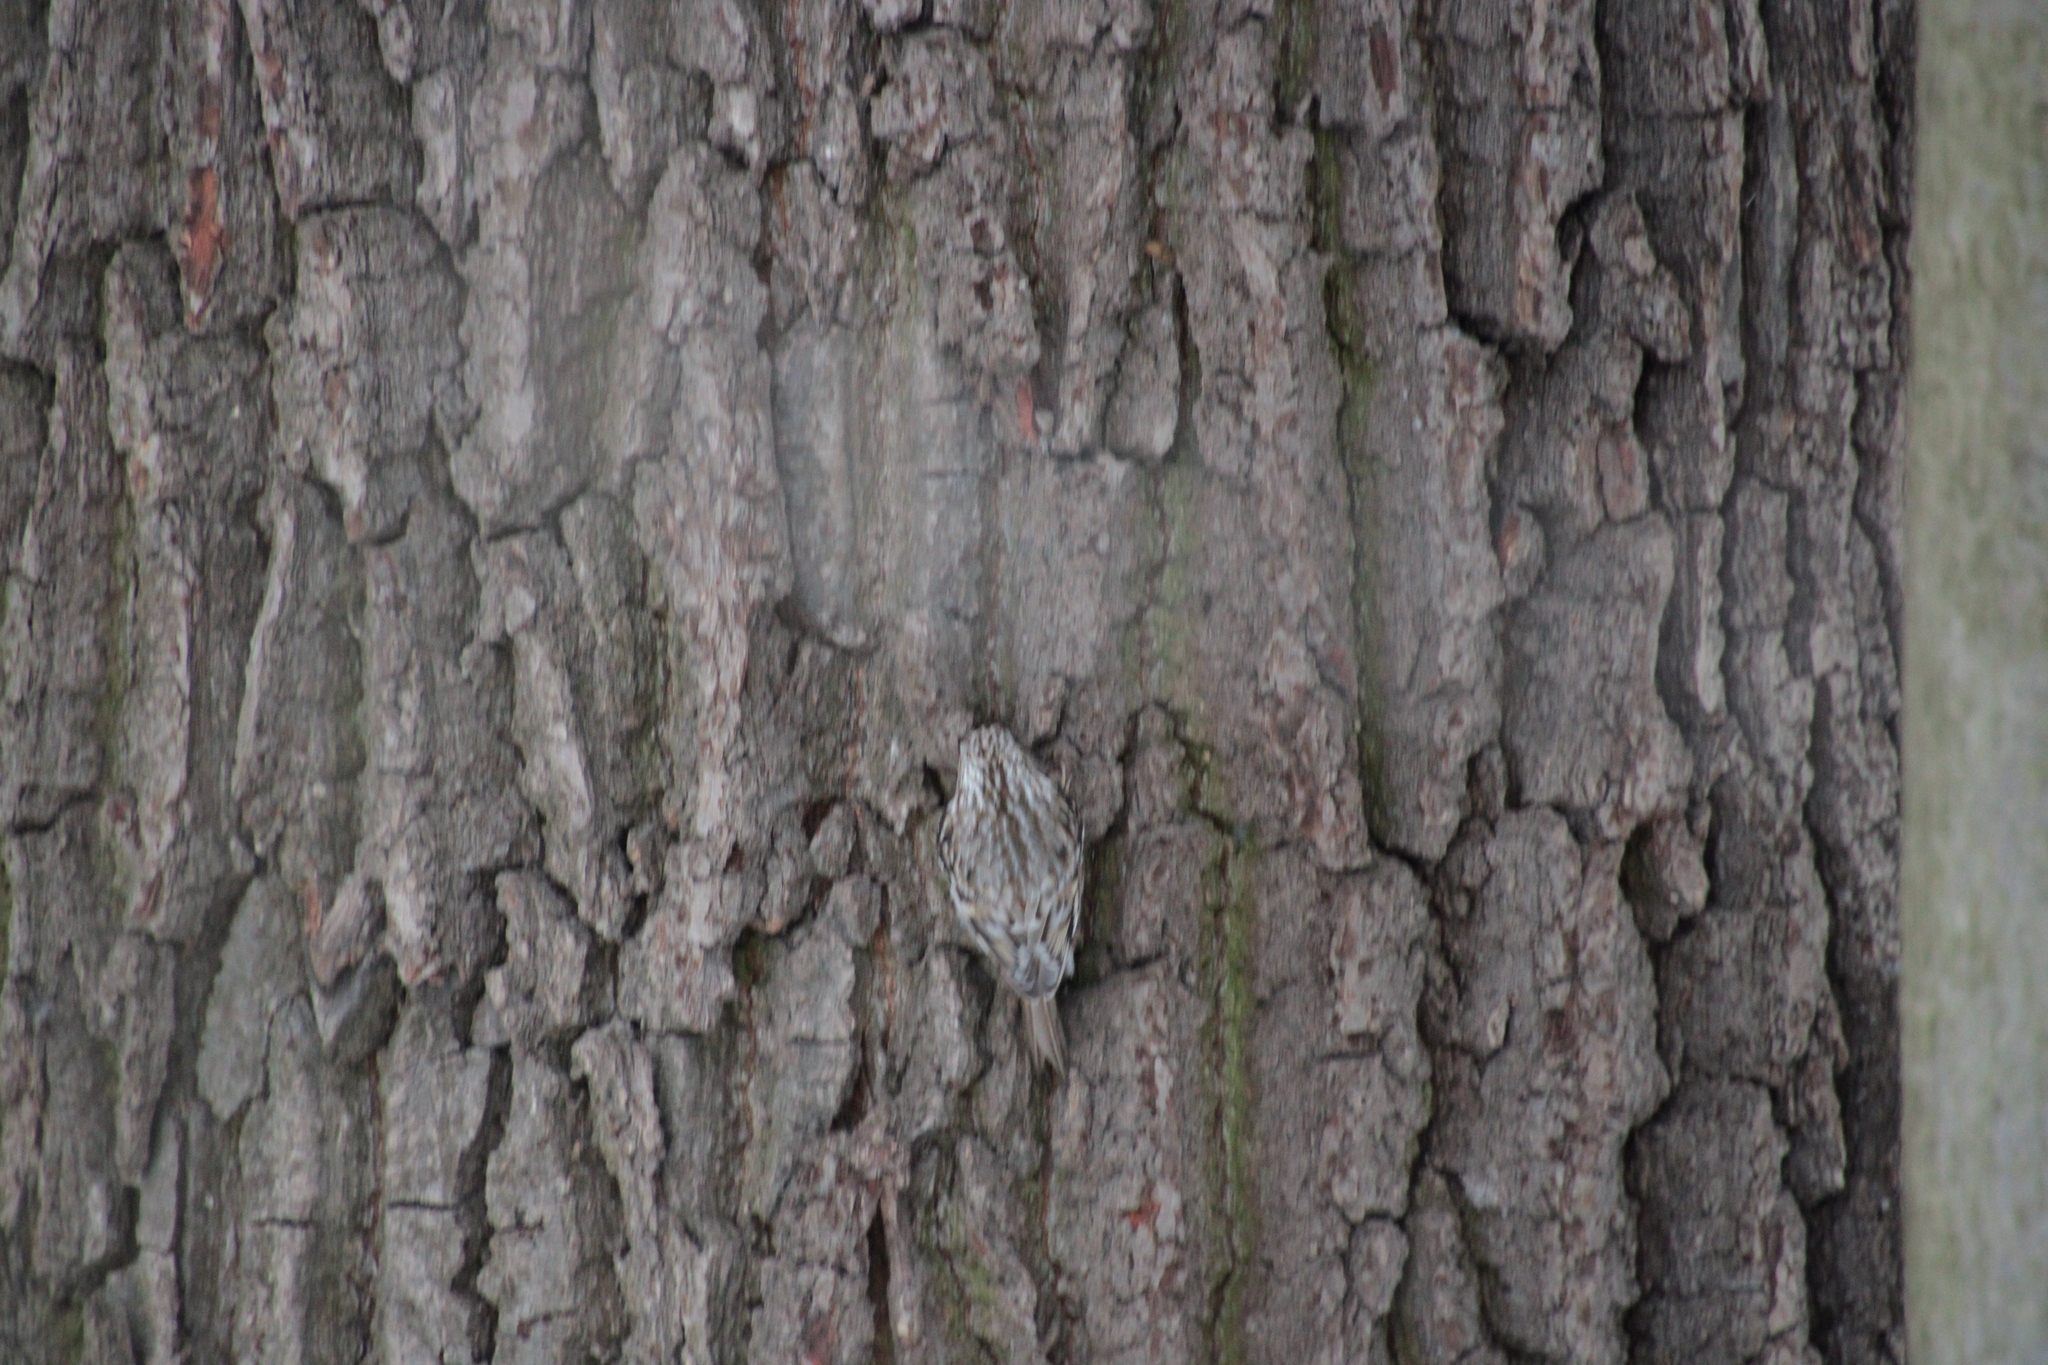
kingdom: Animalia
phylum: Chordata
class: Aves
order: Passeriformes
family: Certhiidae
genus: Certhia
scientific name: Certhia familiaris
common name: Eurasian treecreeper
